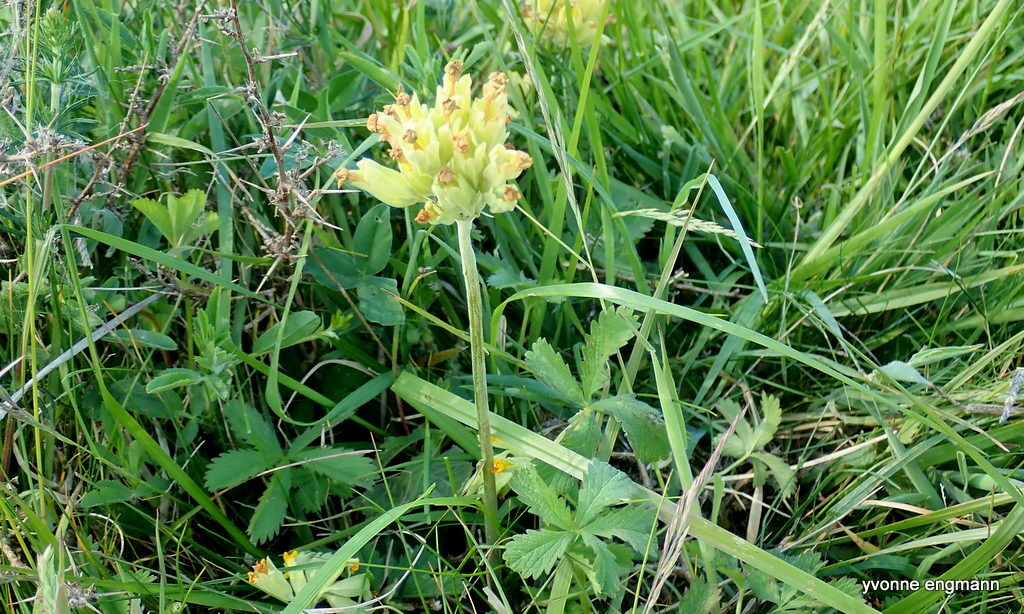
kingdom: Plantae
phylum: Tracheophyta
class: Magnoliopsida
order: Ericales
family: Primulaceae
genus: Primula
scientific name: Primula veris
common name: Cowslip
